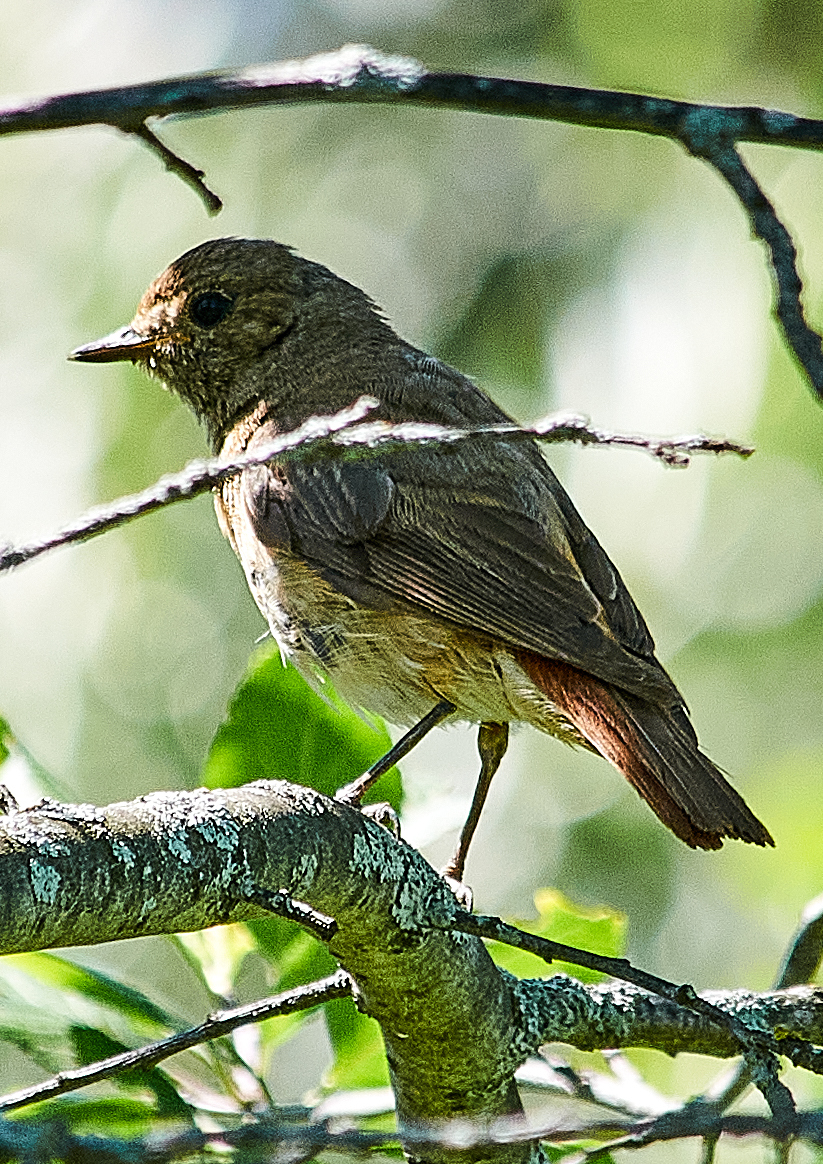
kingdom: Animalia
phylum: Chordata
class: Aves
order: Passeriformes
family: Muscicapidae
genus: Phoenicurus
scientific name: Phoenicurus phoenicurus
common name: Common redstart
